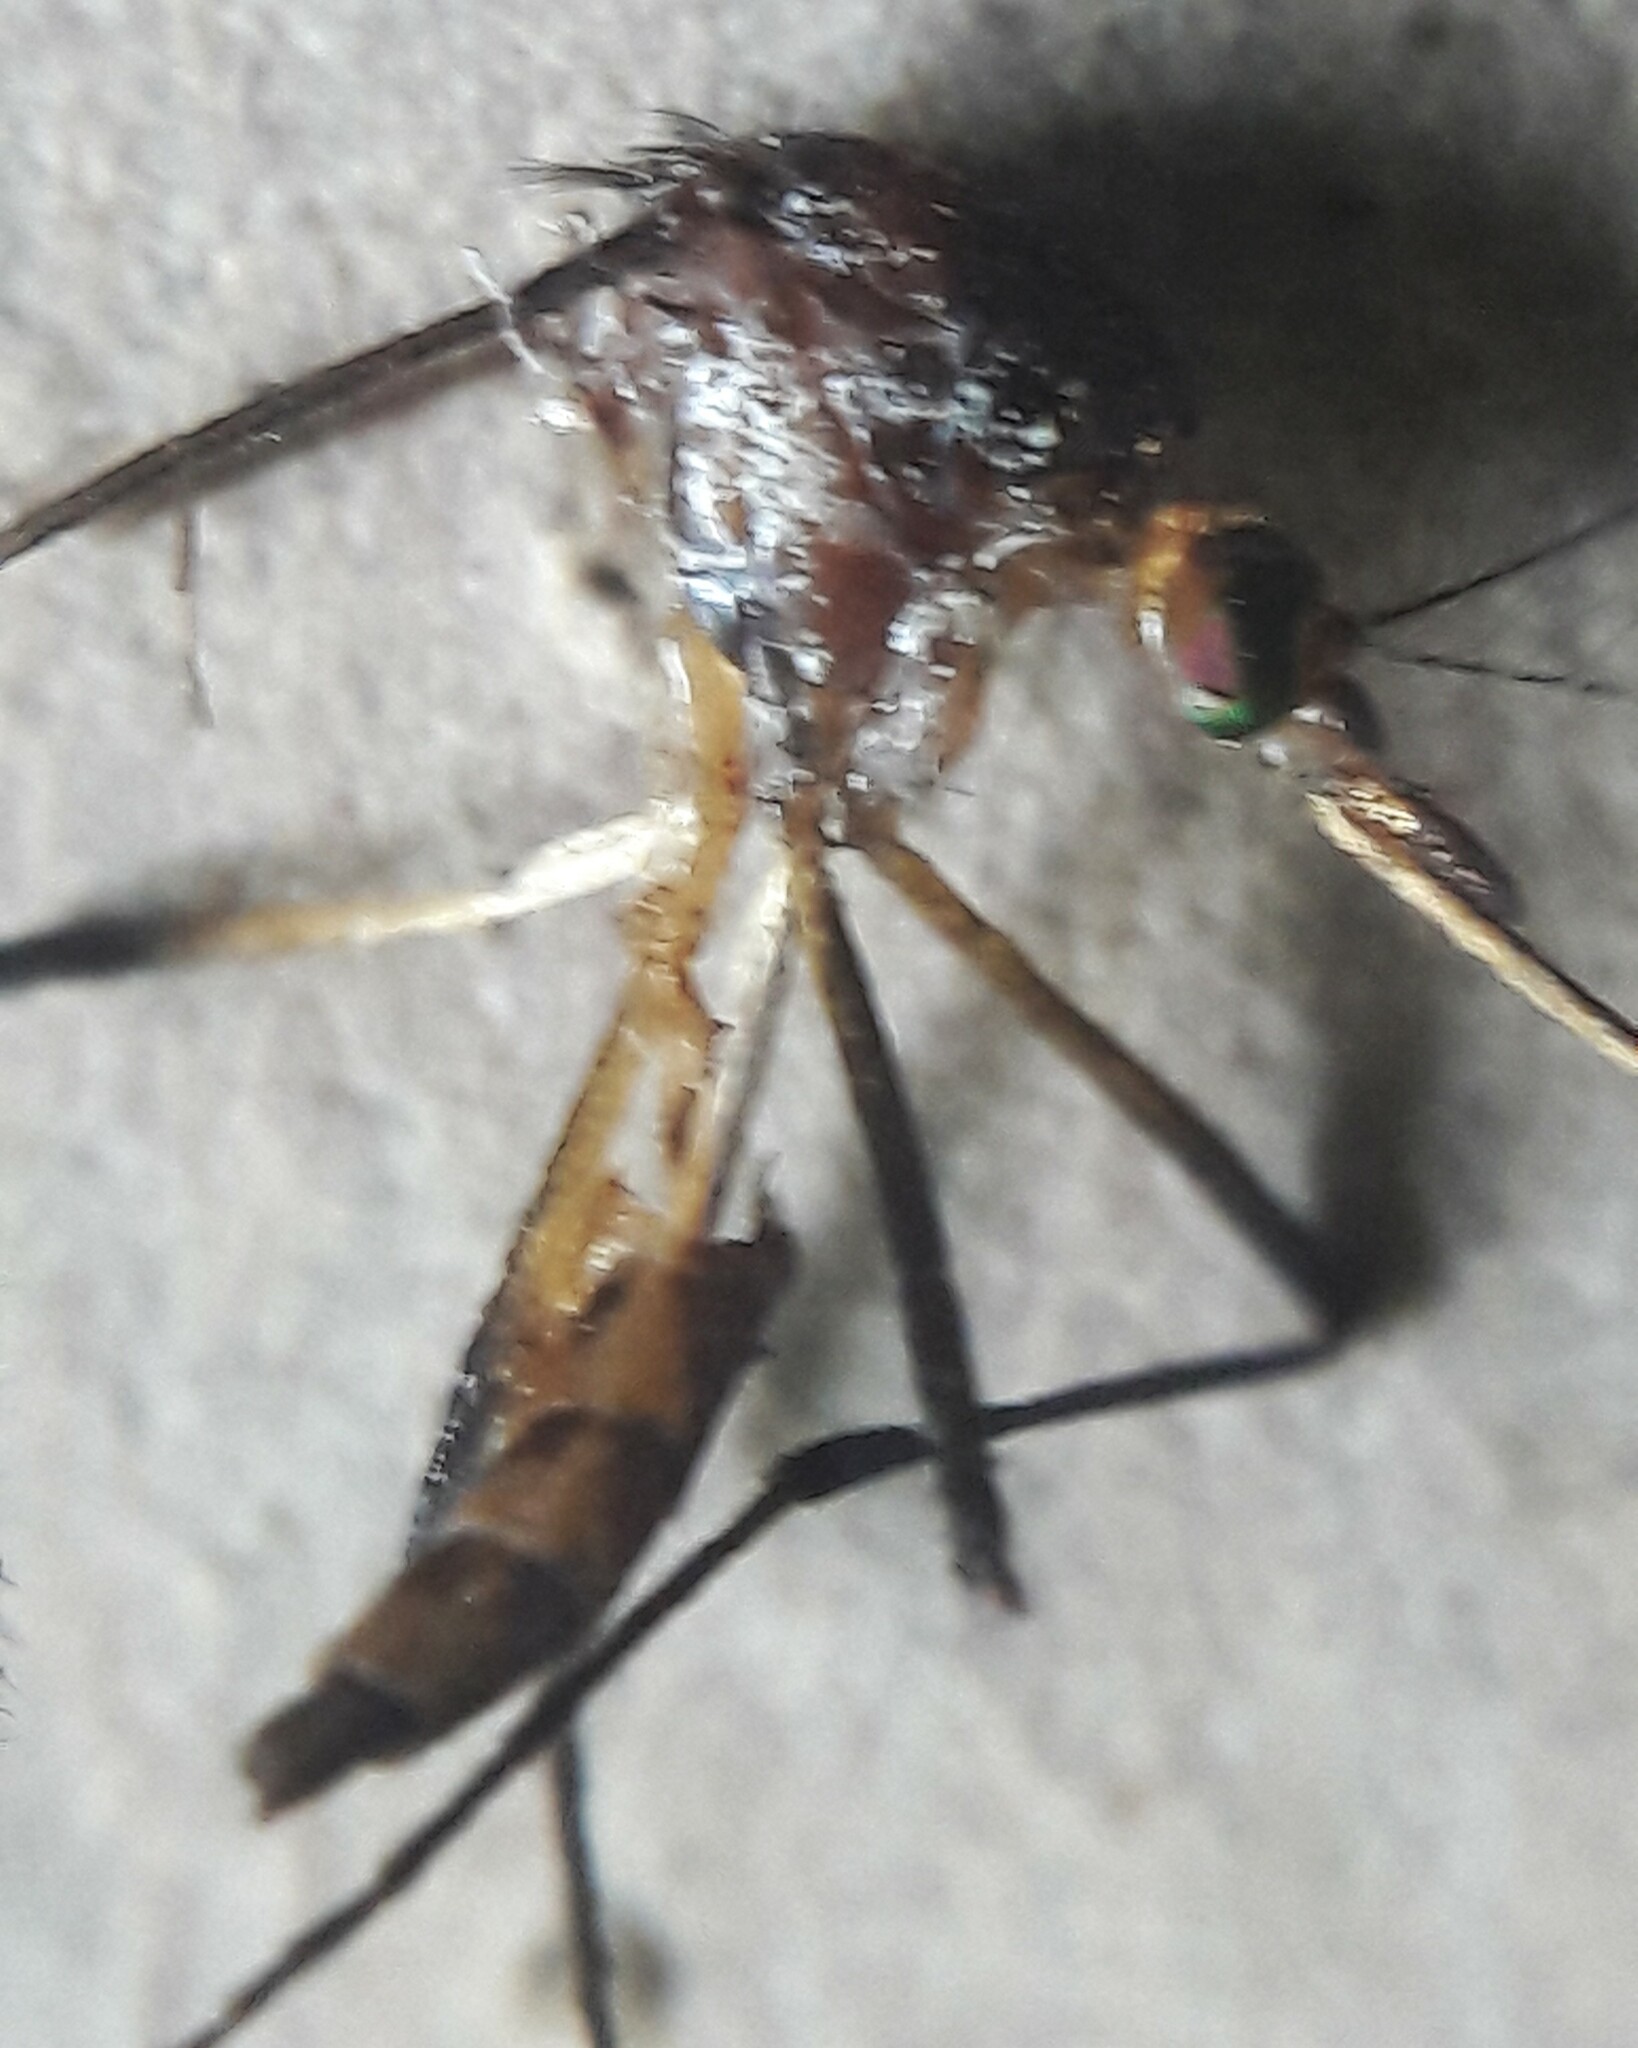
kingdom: Animalia
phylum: Arthropoda
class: Insecta
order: Diptera
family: Culicidae
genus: Psorophora
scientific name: Psorophora ferox
